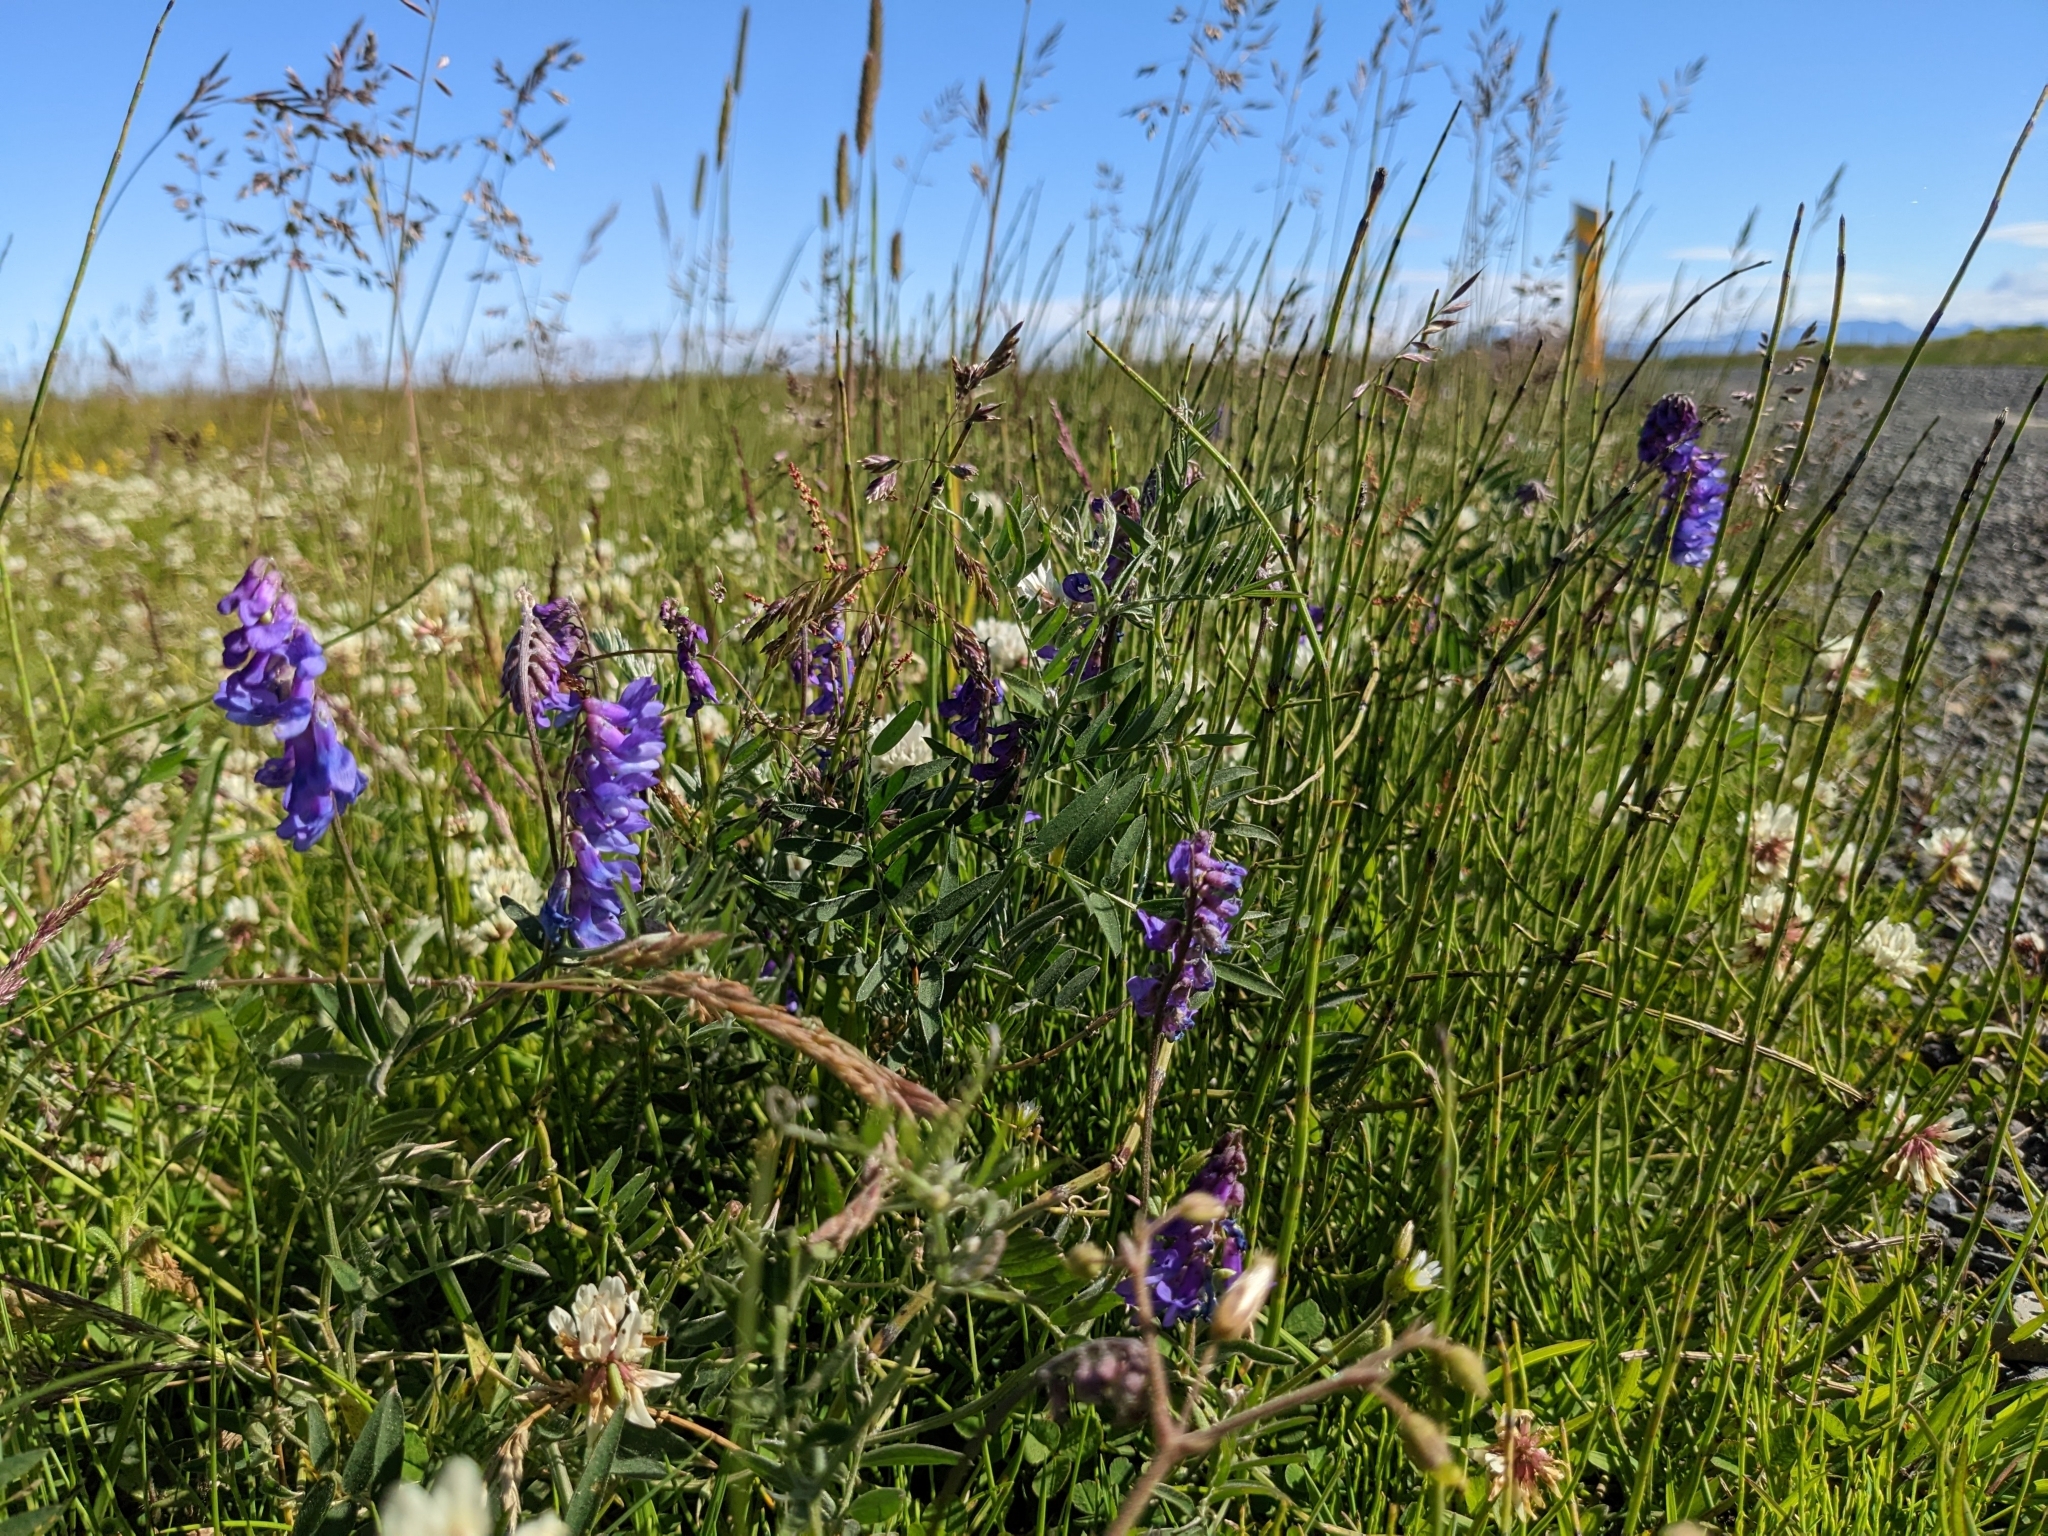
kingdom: Plantae
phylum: Tracheophyta
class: Magnoliopsida
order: Fabales
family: Fabaceae
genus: Vicia
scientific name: Vicia cracca
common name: Bird vetch
